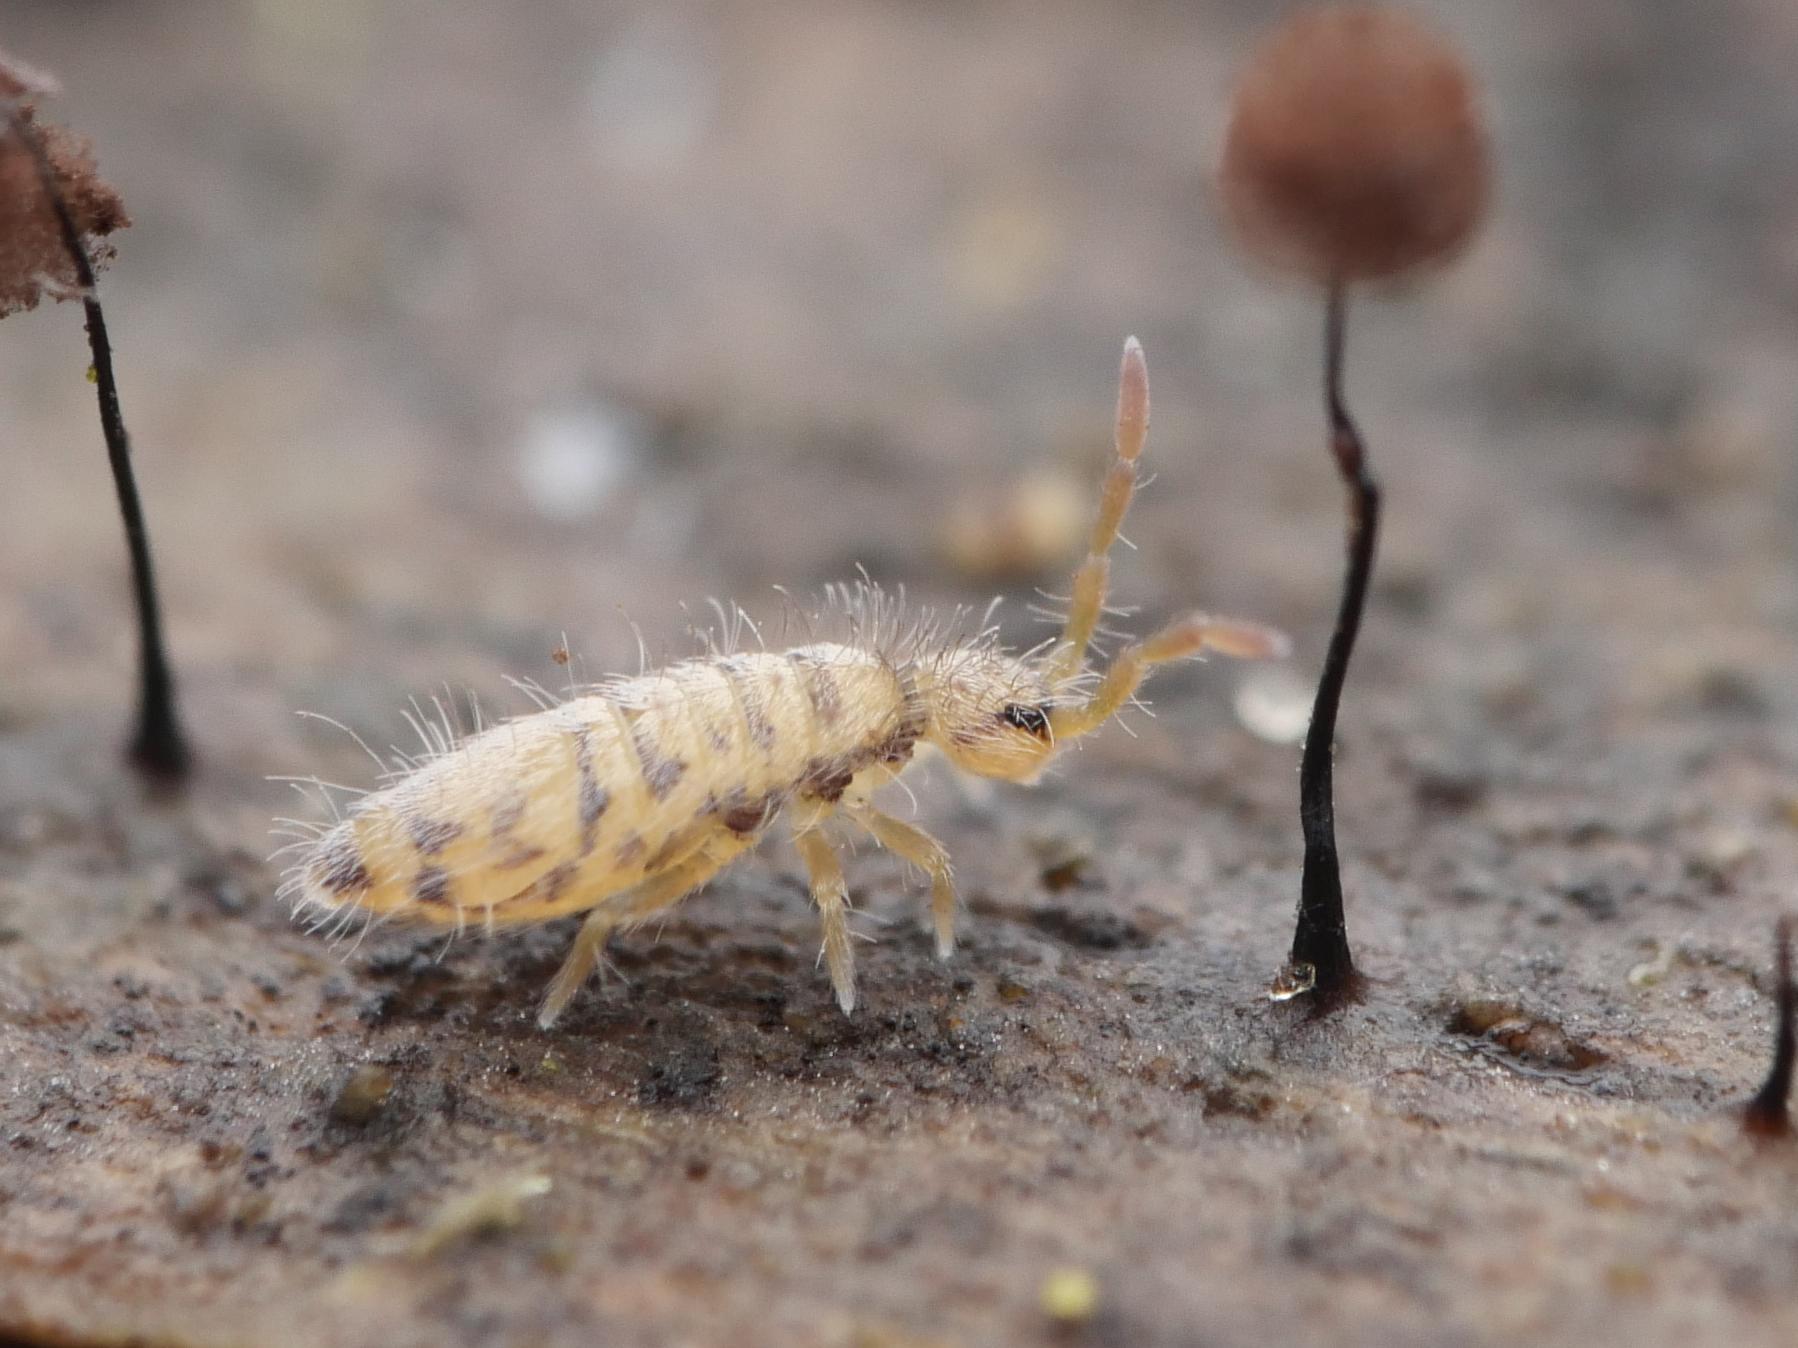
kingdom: Animalia
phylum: Arthropoda
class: Collembola
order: Entomobryomorpha
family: Entomobryidae
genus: Entomobrya
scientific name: Entomobrya multifasciata
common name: Springtail
